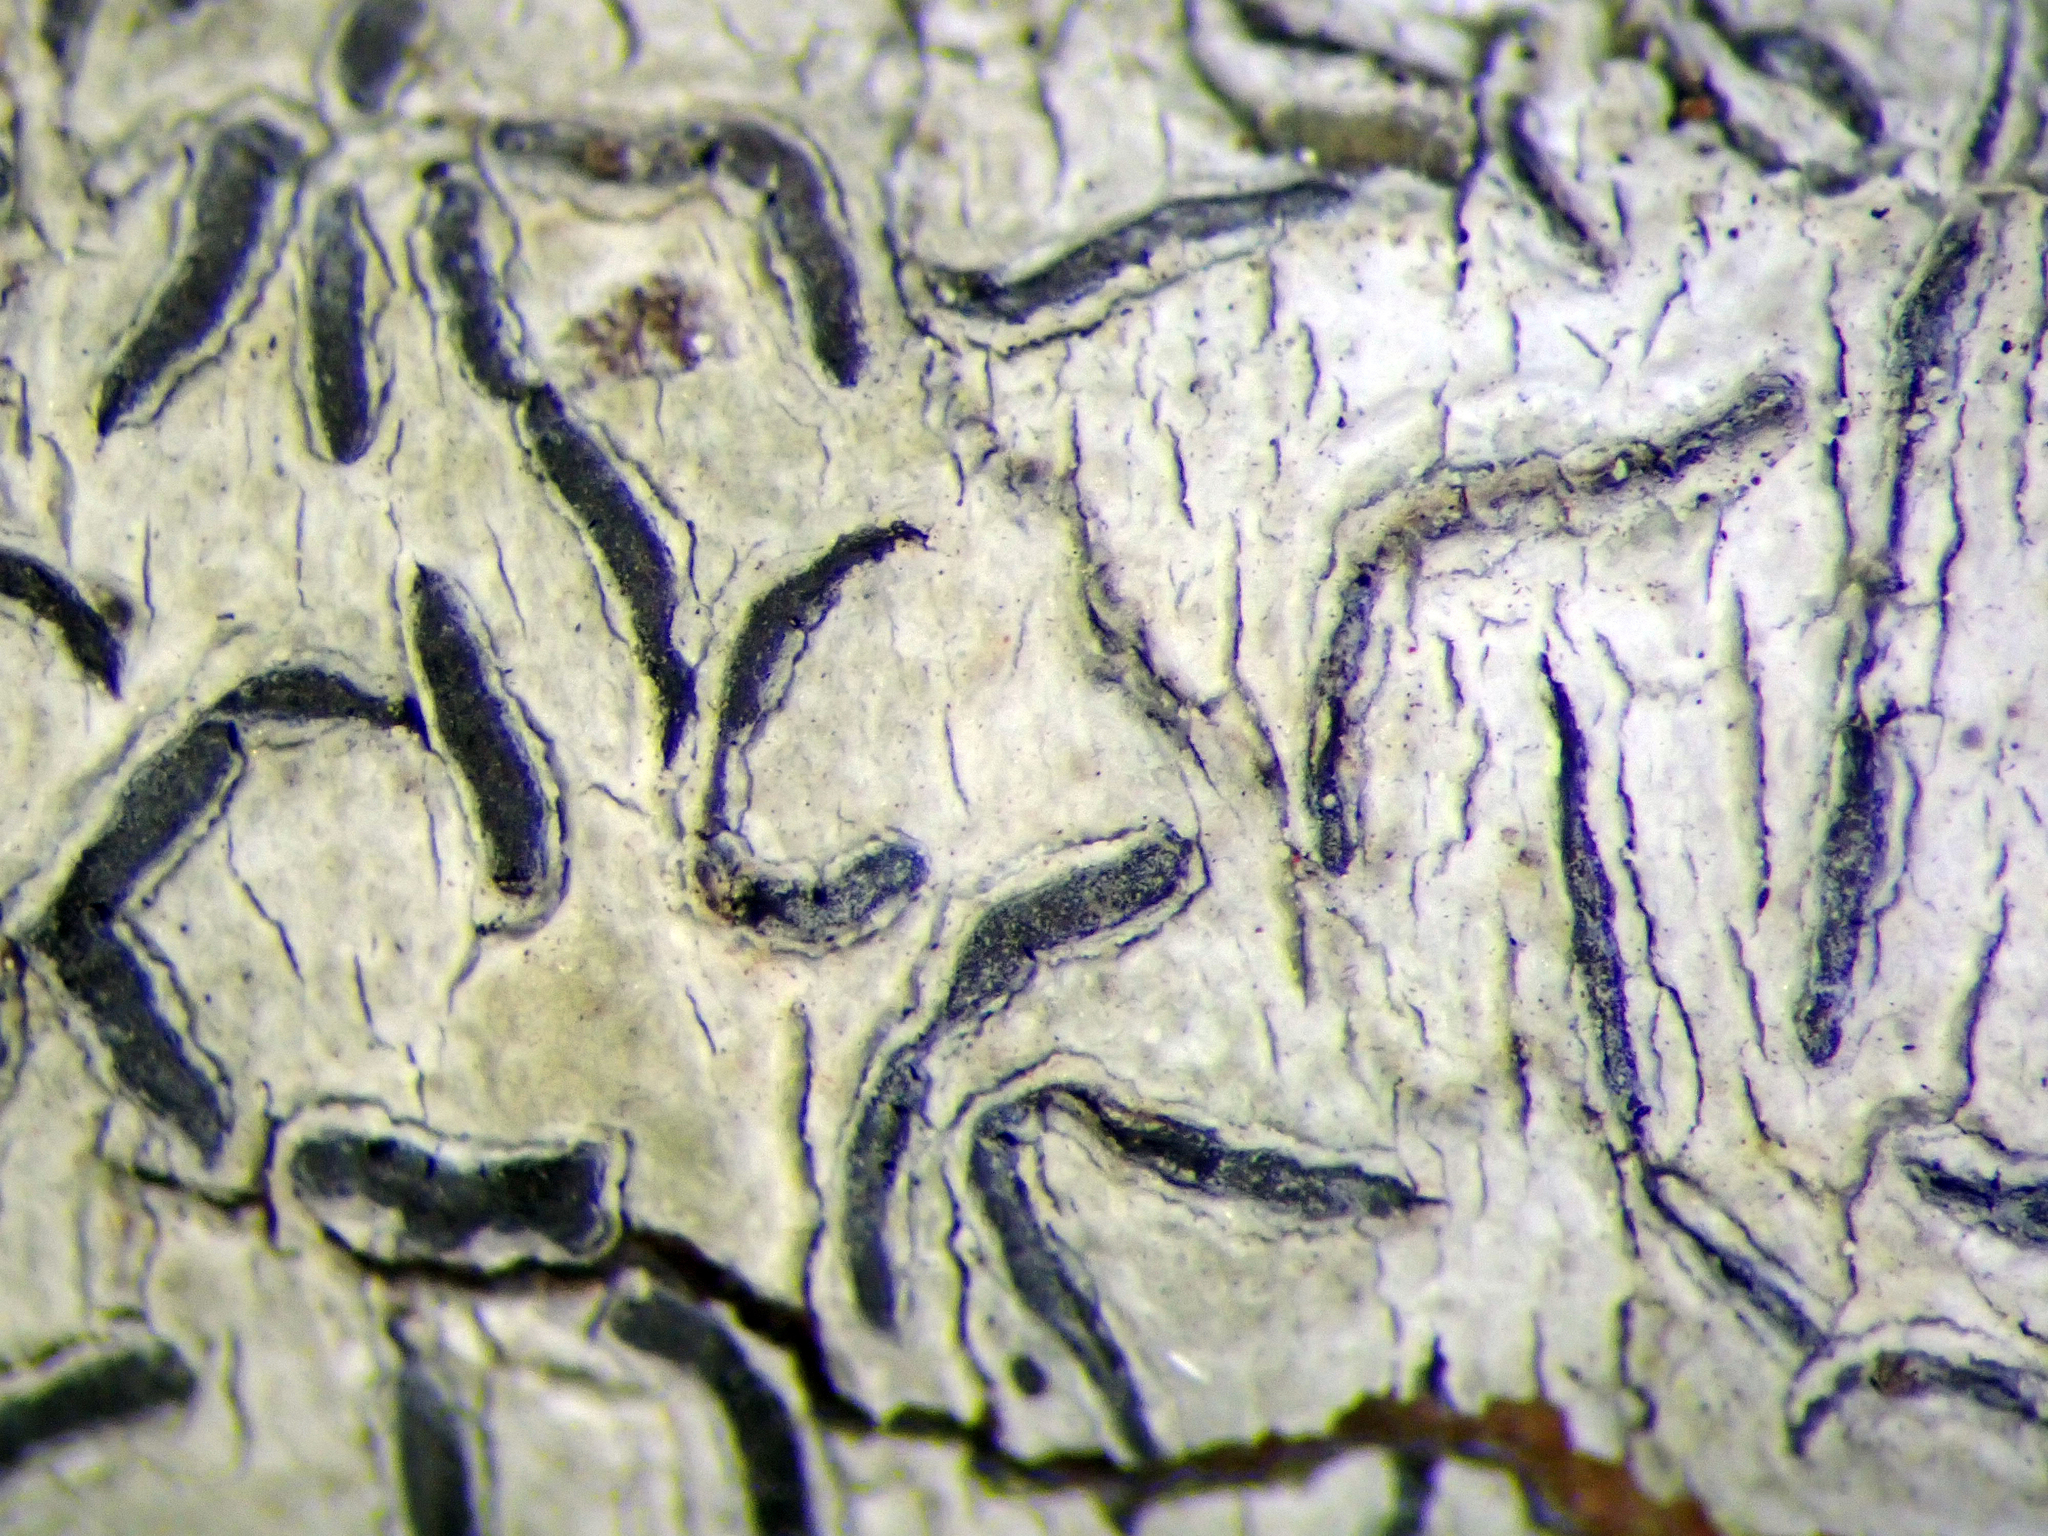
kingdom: Fungi
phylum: Ascomycota
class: Lecanoromycetes
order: Ostropales
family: Graphidaceae
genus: Fissurina
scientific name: Fissurina
